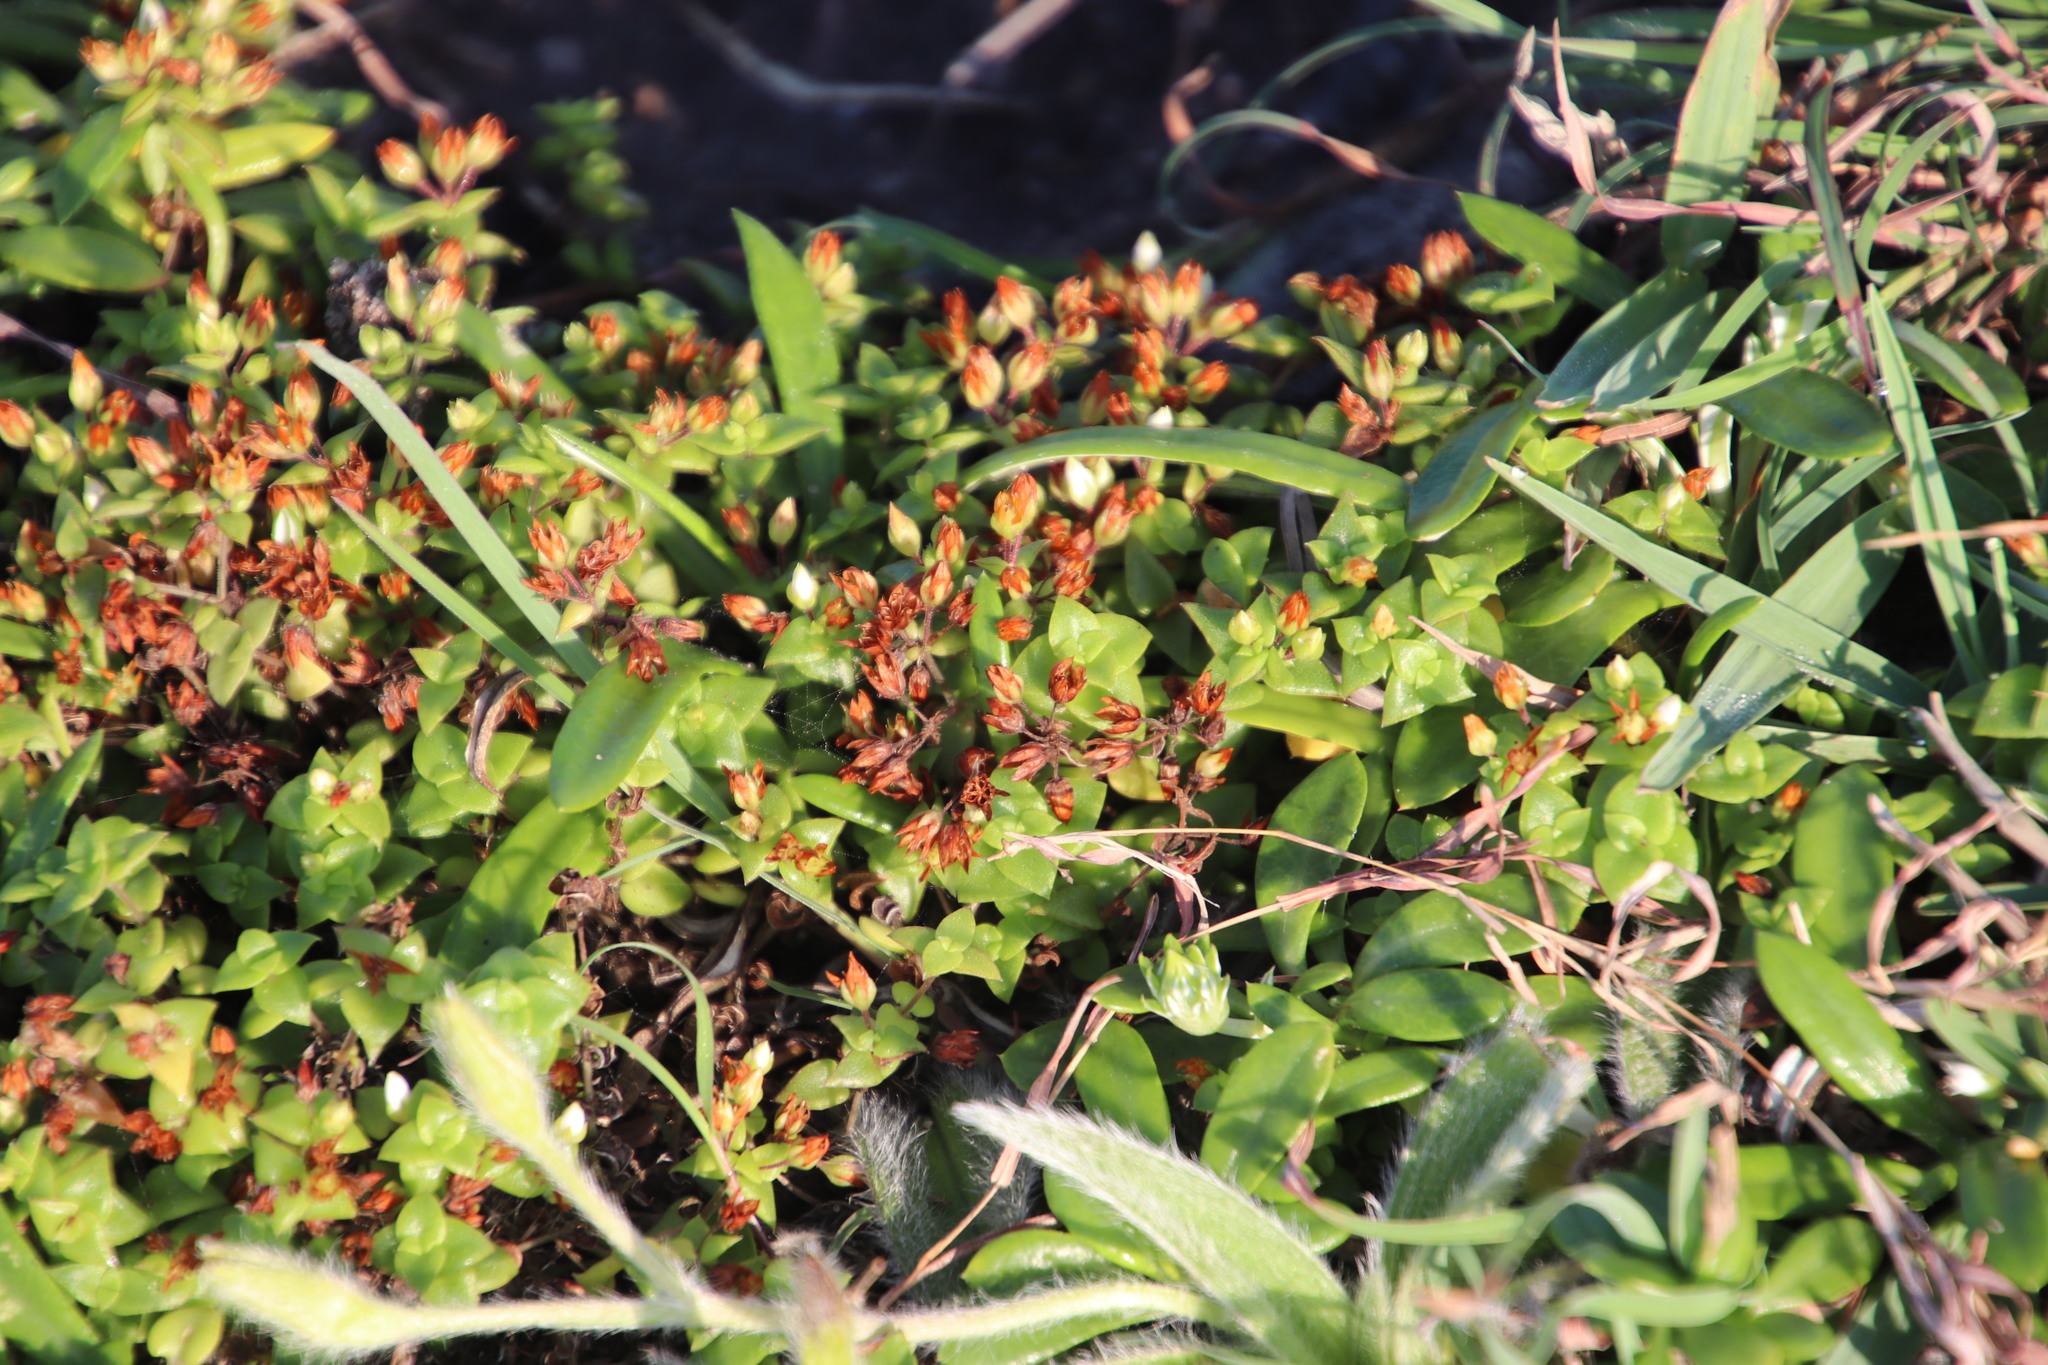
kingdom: Plantae
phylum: Tracheophyta
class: Magnoliopsida
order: Saxifragales
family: Crassulaceae
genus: Crassula
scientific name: Crassula pellucida
